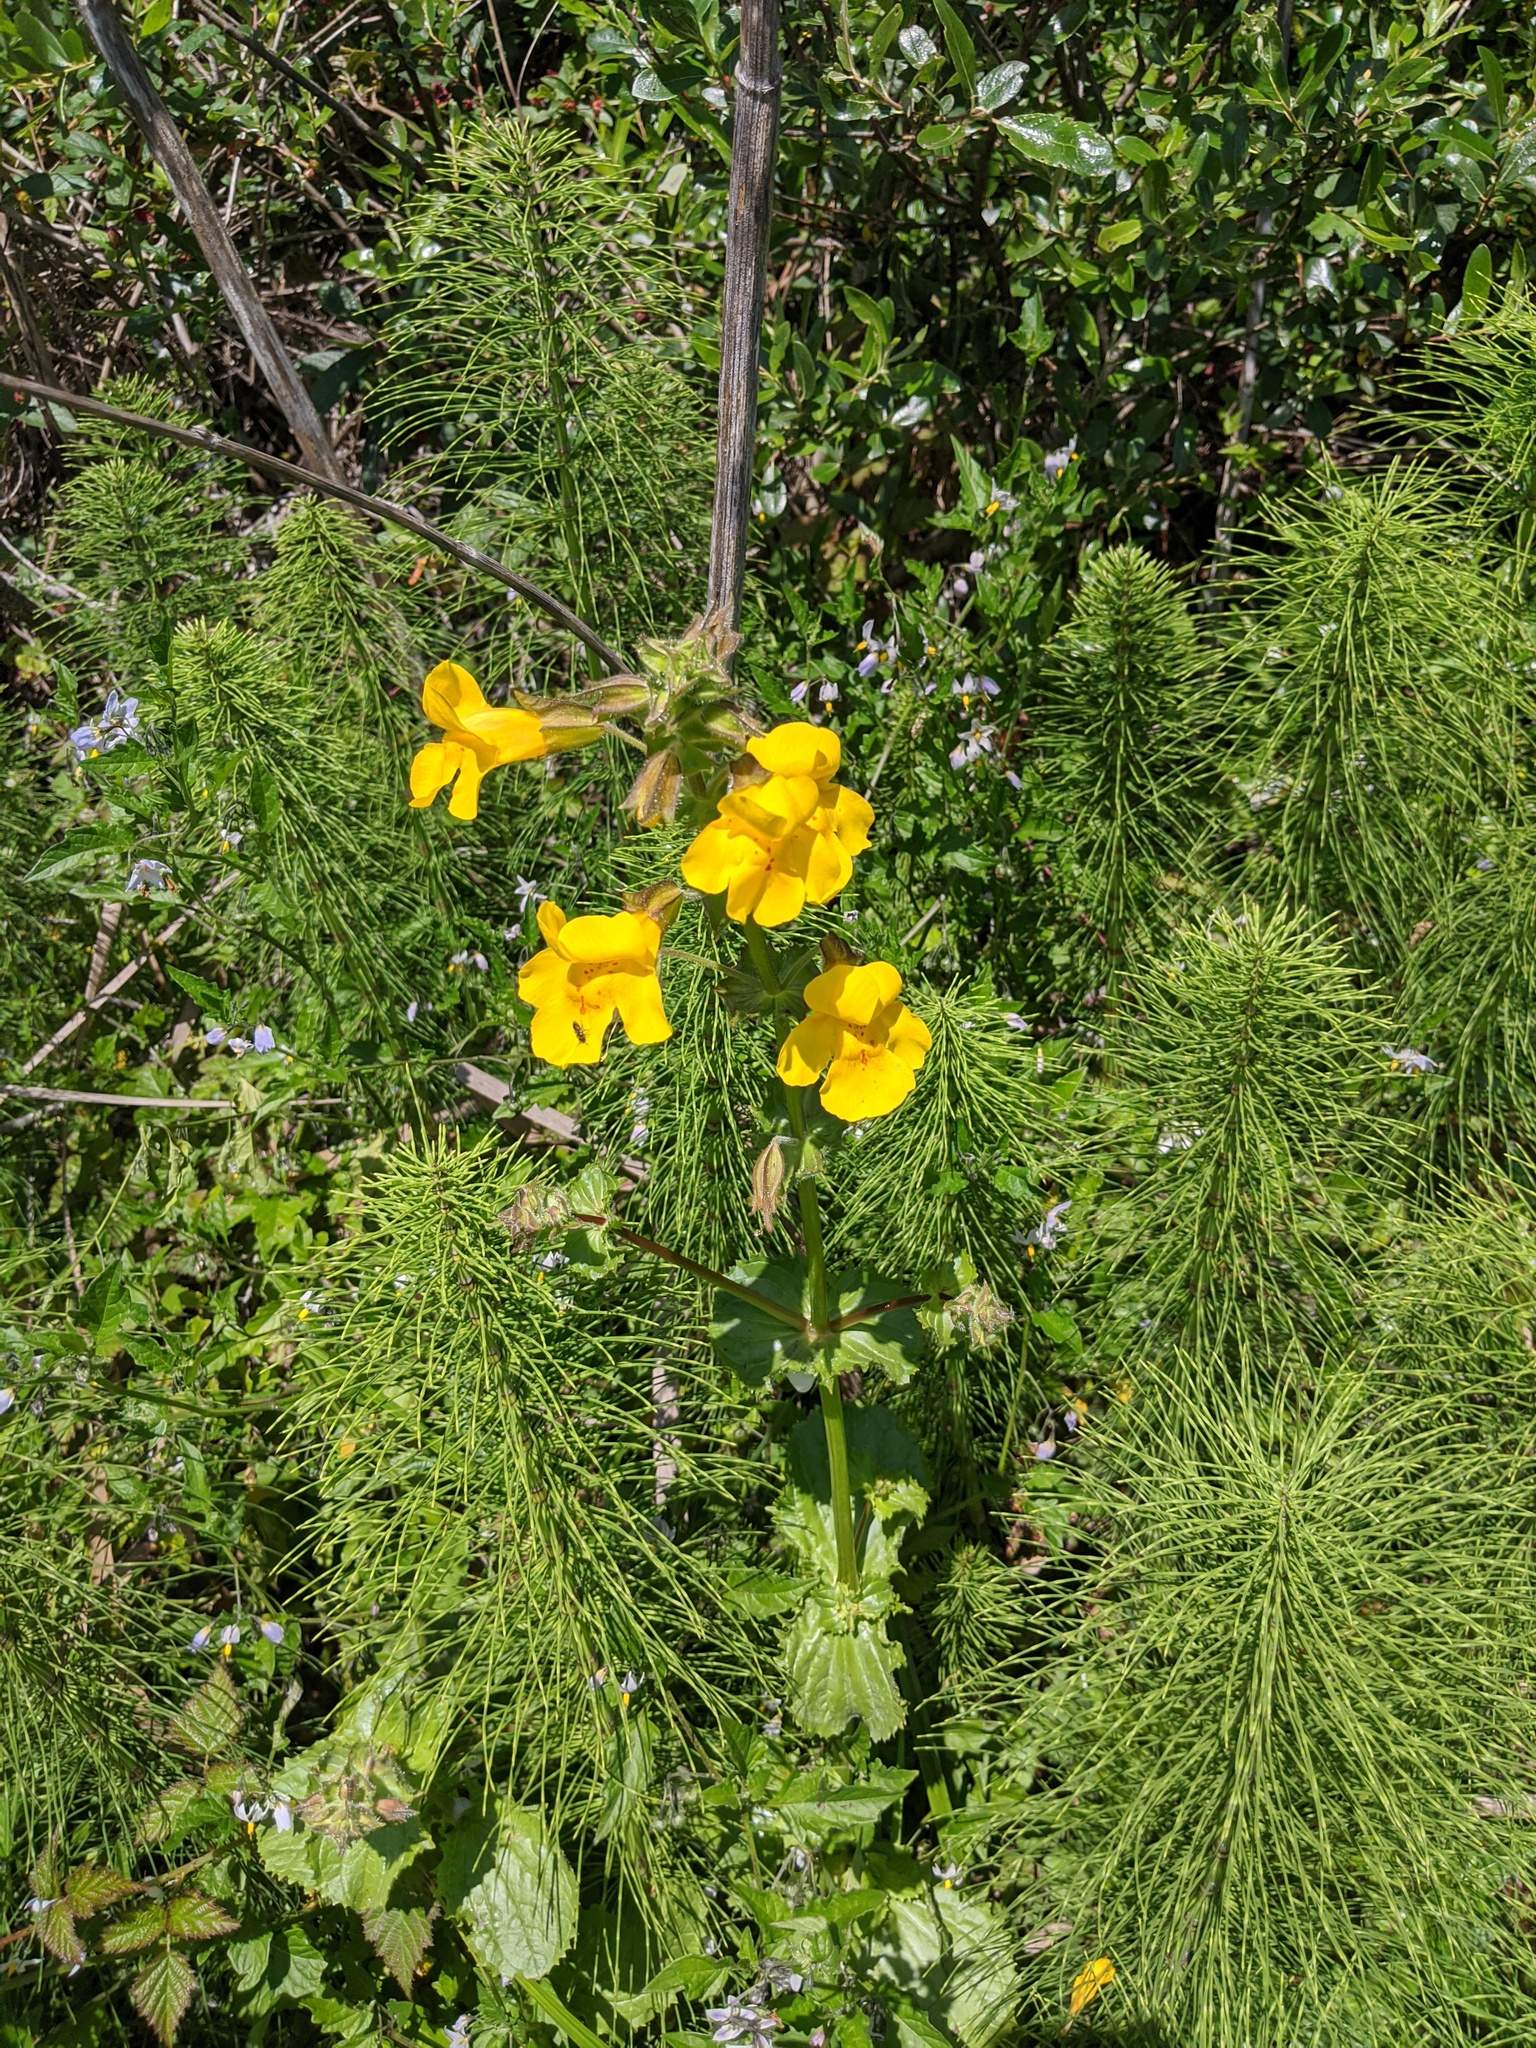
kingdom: Plantae
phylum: Tracheophyta
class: Magnoliopsida
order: Lamiales
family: Phrymaceae
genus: Erythranthe
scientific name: Erythranthe grandis
